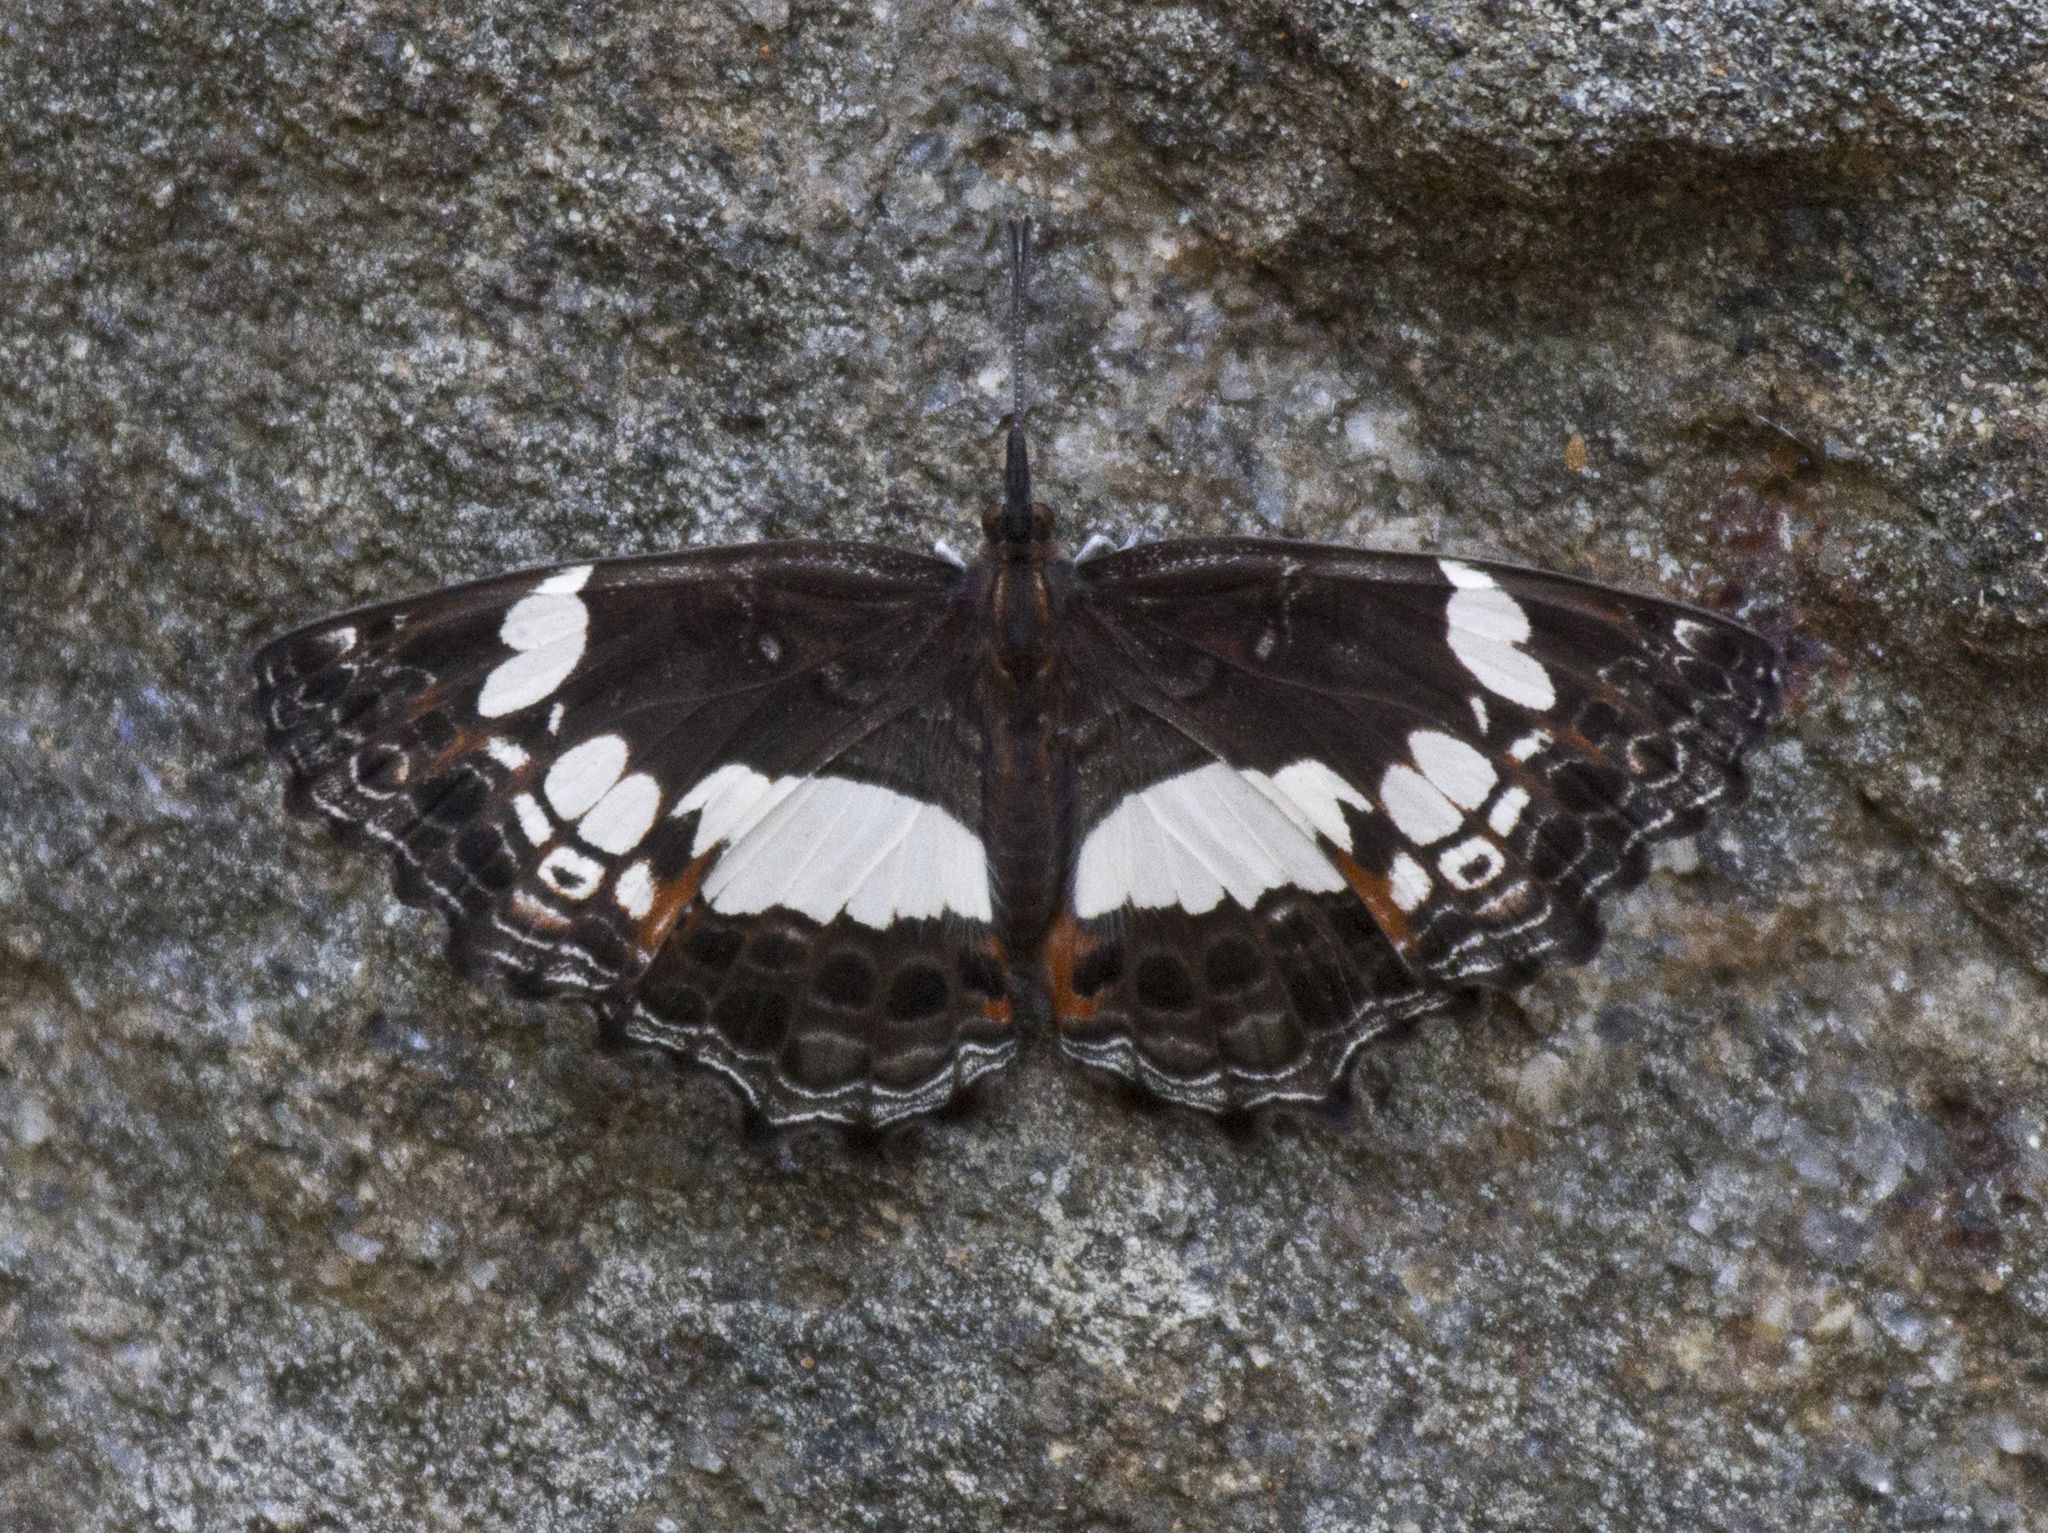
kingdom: Animalia
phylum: Arthropoda
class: Insecta
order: Lepidoptera
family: Nymphalidae
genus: Neptidopsis
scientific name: Neptidopsis ophione
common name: Scalloped false sailor
